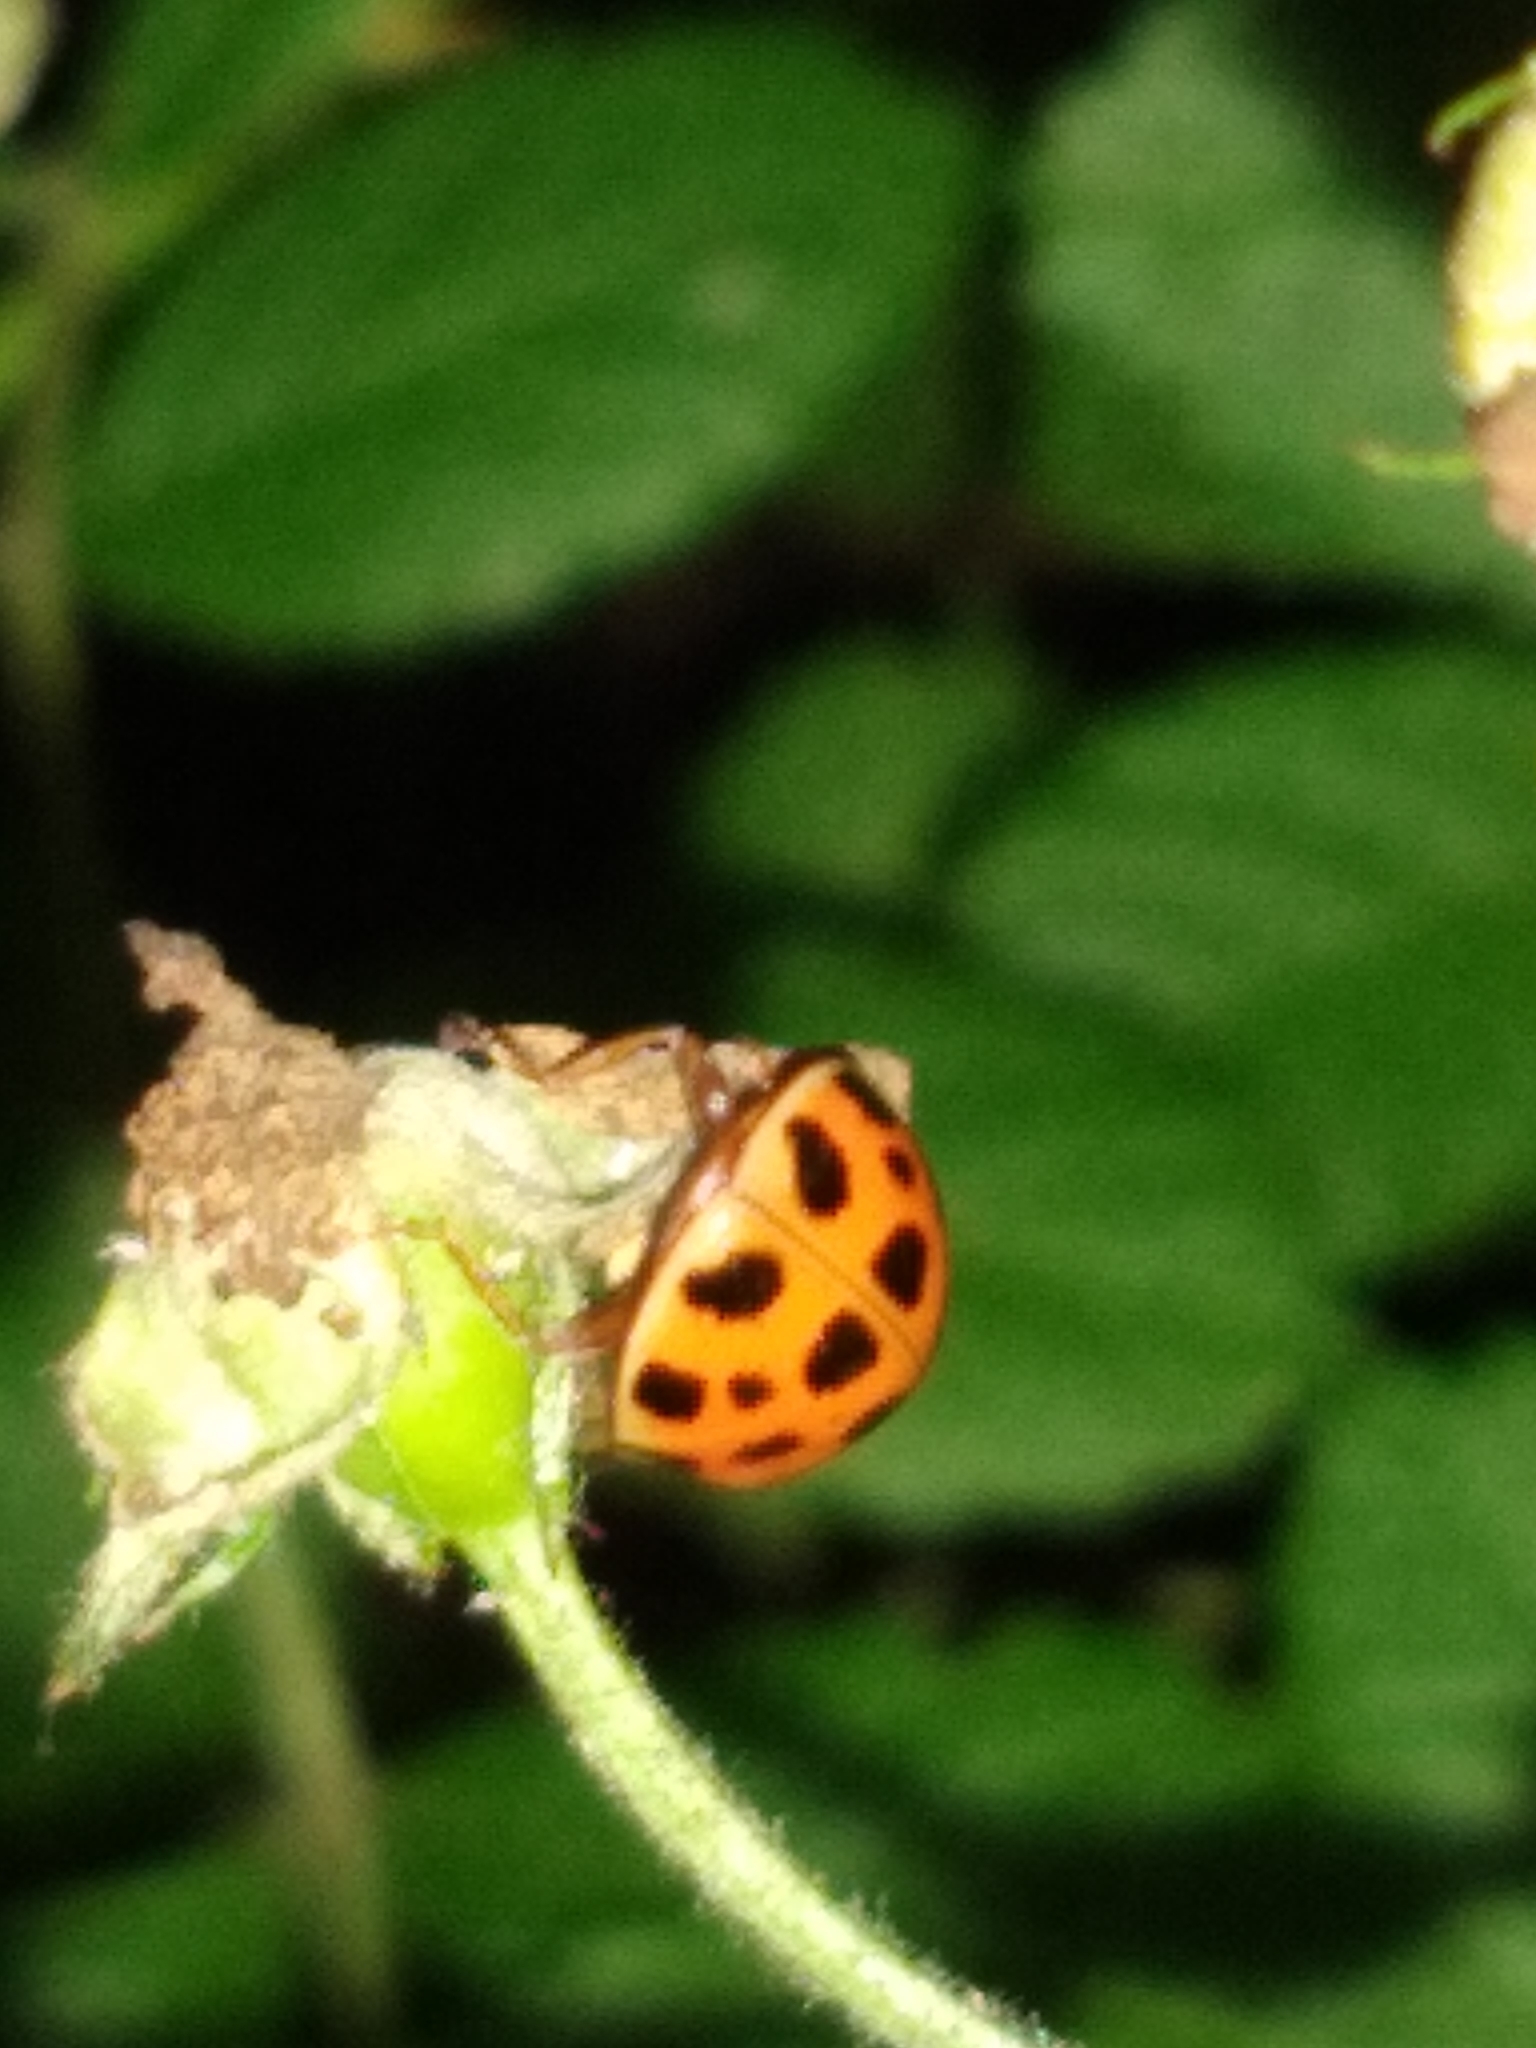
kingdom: Animalia
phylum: Arthropoda
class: Insecta
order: Coleoptera
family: Coccinellidae
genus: Harmonia
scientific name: Harmonia axyridis
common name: Harlequin ladybird
